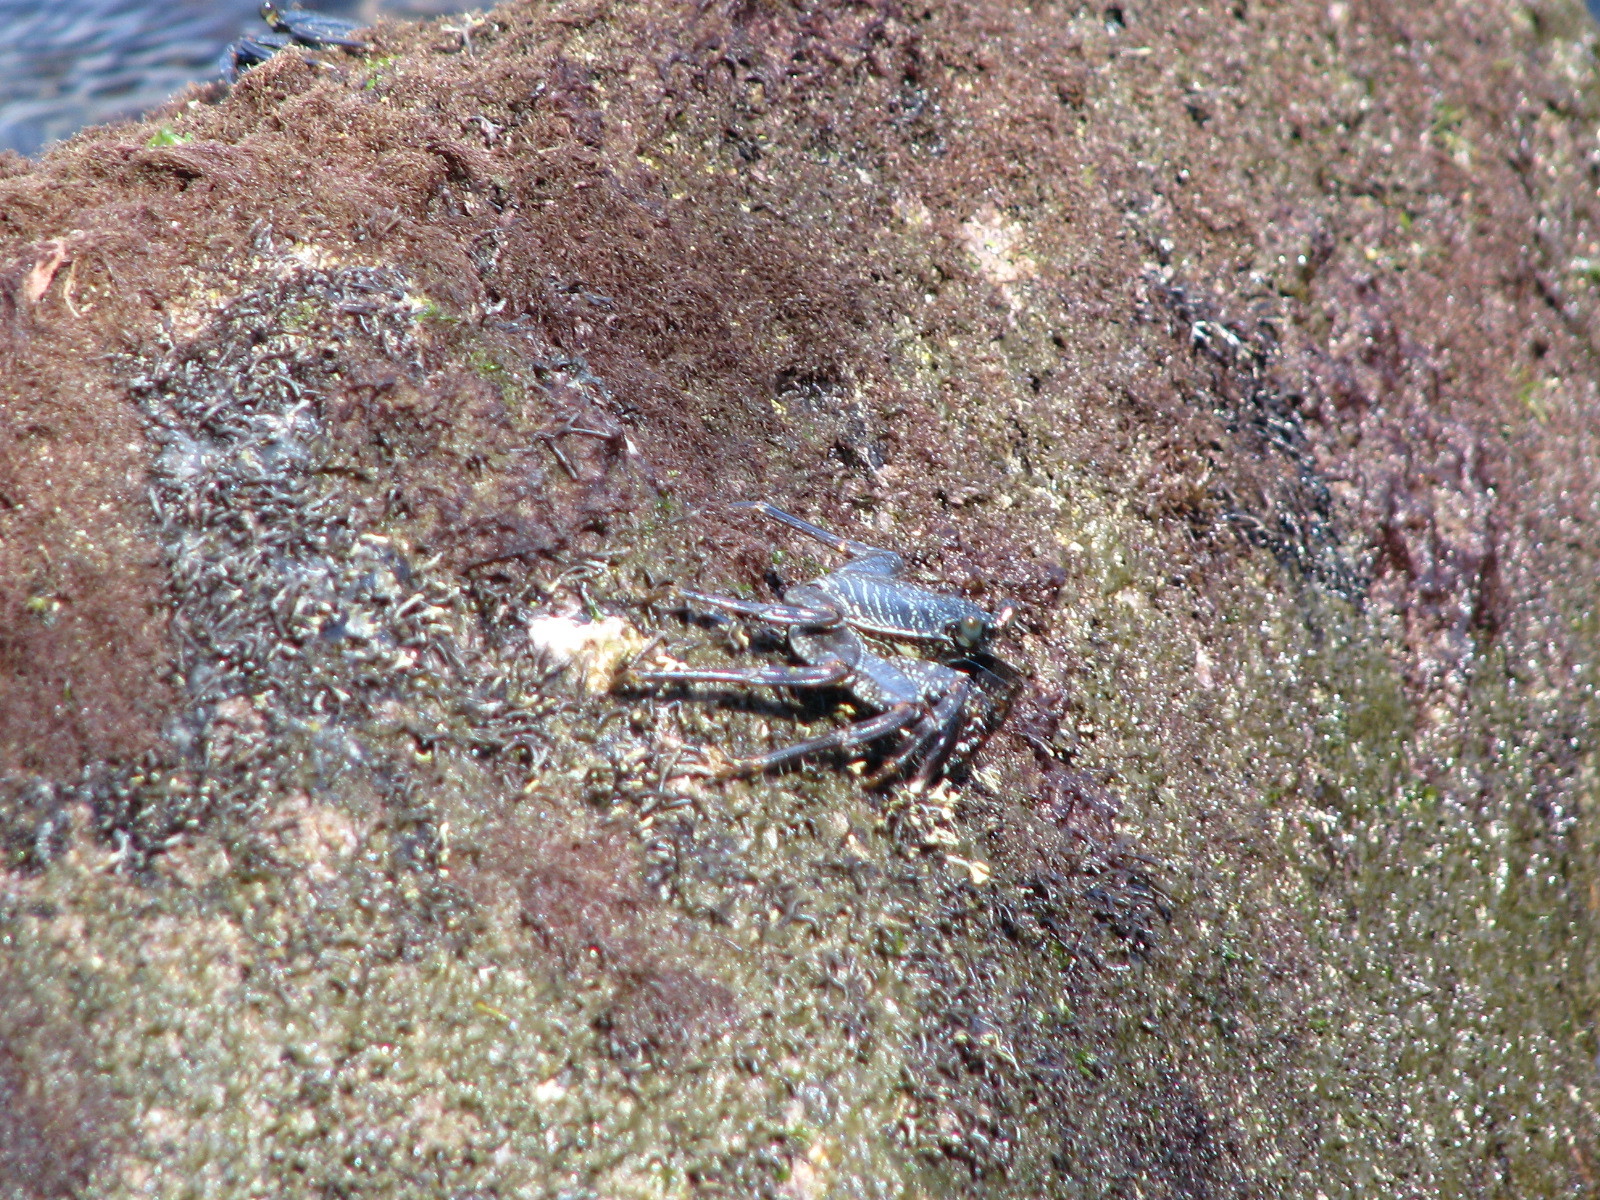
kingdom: Animalia
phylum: Arthropoda
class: Malacostraca
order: Decapoda
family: Grapsidae
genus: Grapsus
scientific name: Grapsus tenuicrustatus
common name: Natal lightfoot crab
